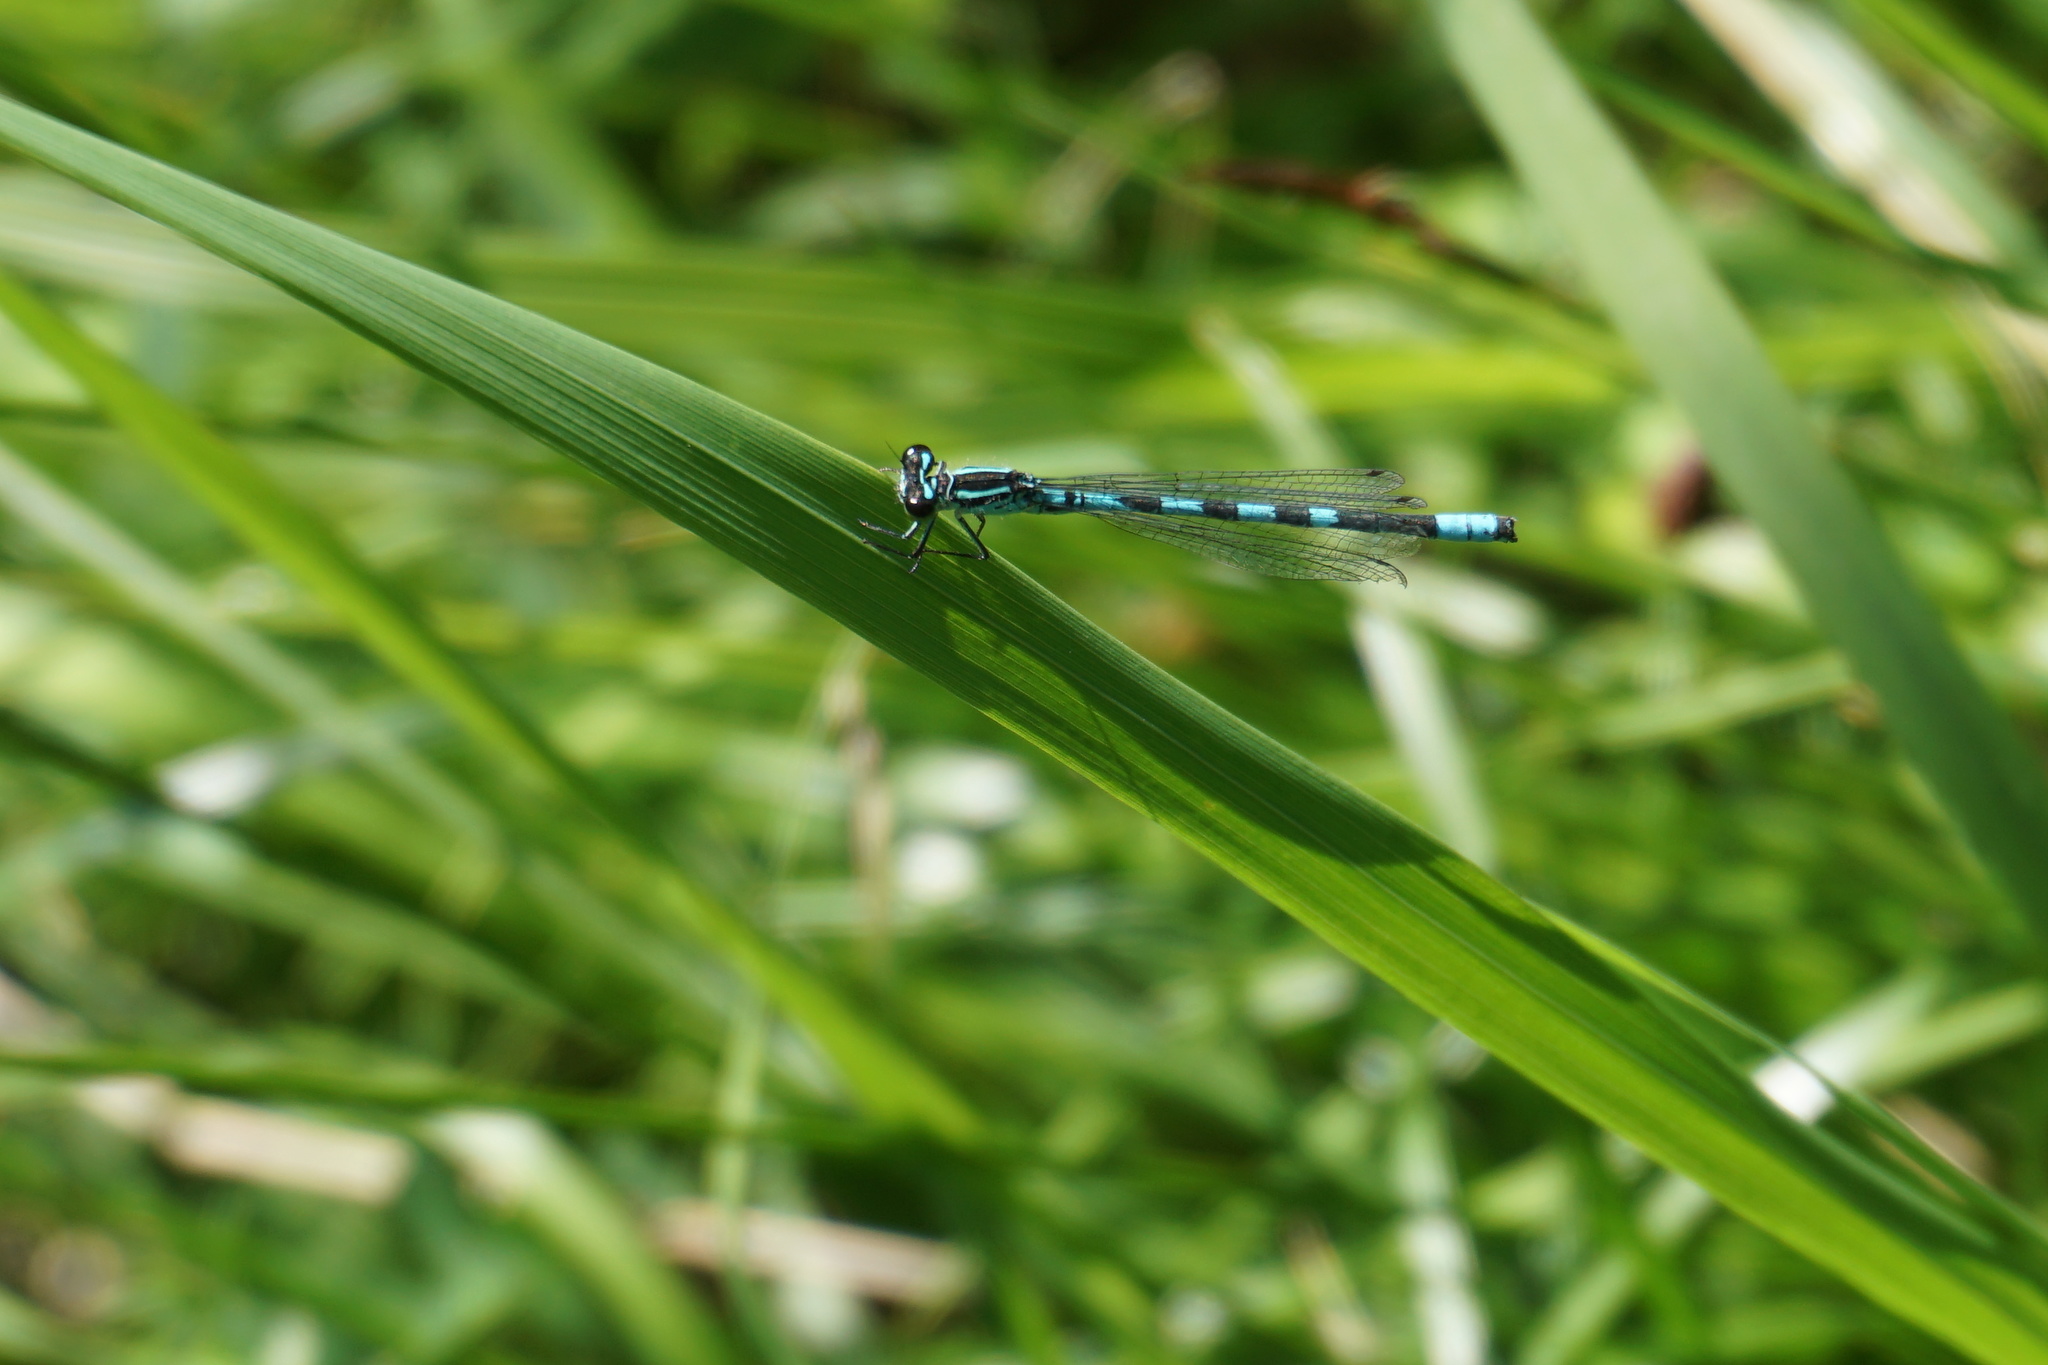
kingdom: Animalia
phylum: Arthropoda
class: Insecta
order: Odonata
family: Coenagrionidae
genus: Coenagrion
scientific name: Coenagrion hastulatum
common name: Spearhead bluet
